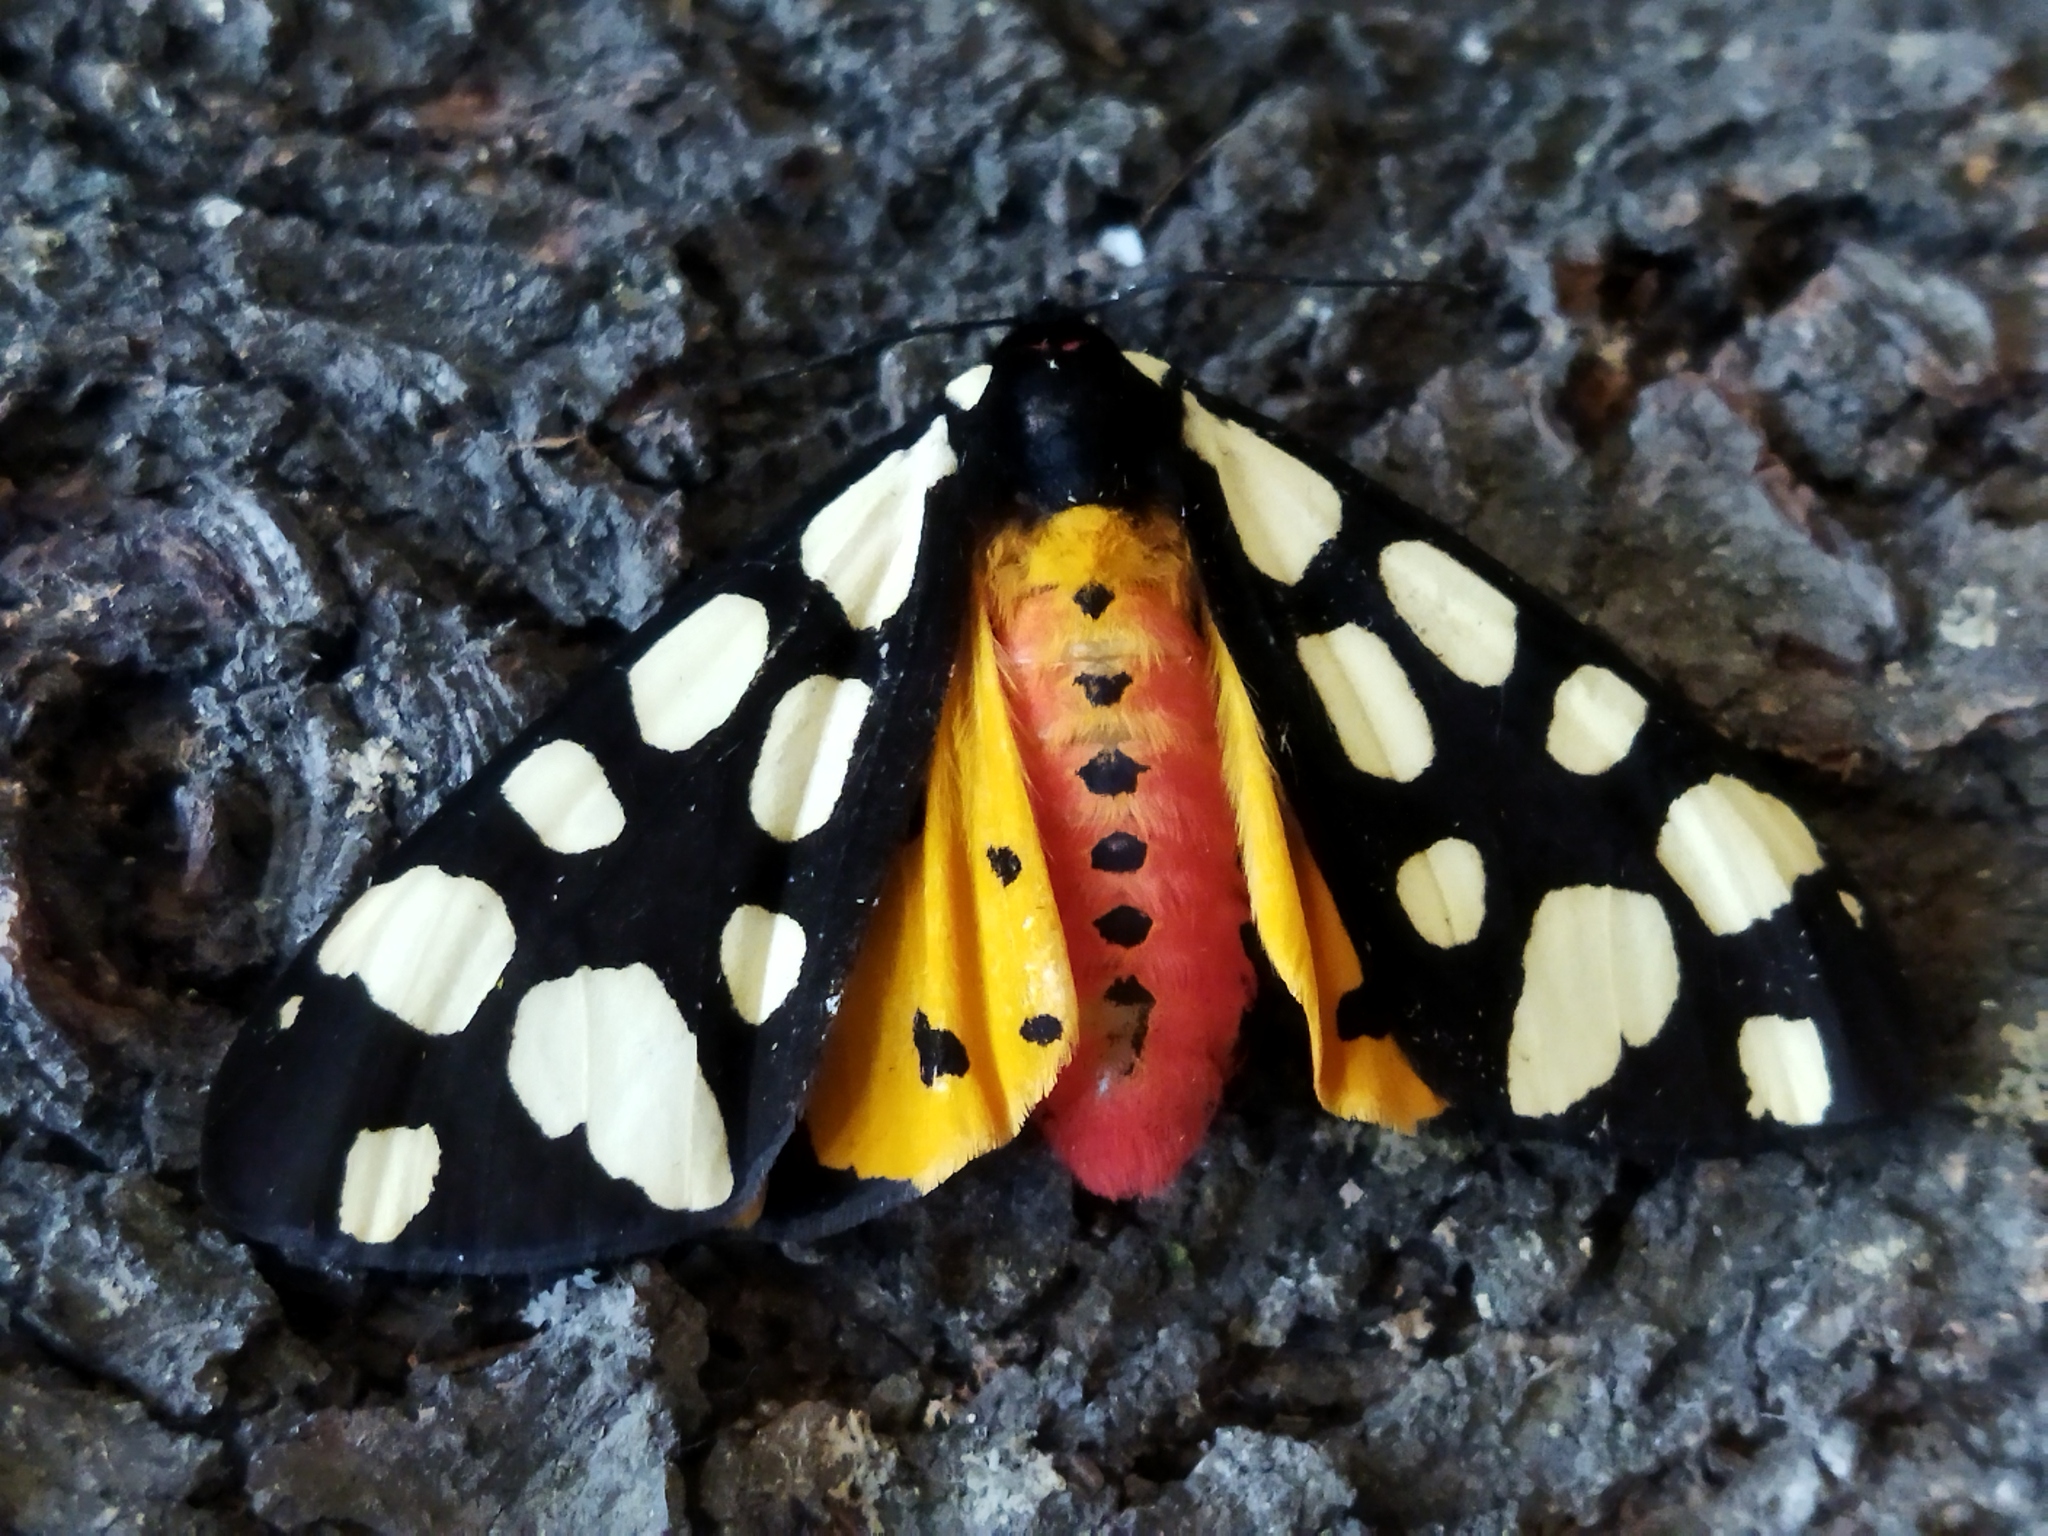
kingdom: Animalia
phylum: Arthropoda
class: Insecta
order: Lepidoptera
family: Erebidae
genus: Epicallia
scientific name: Epicallia villica
